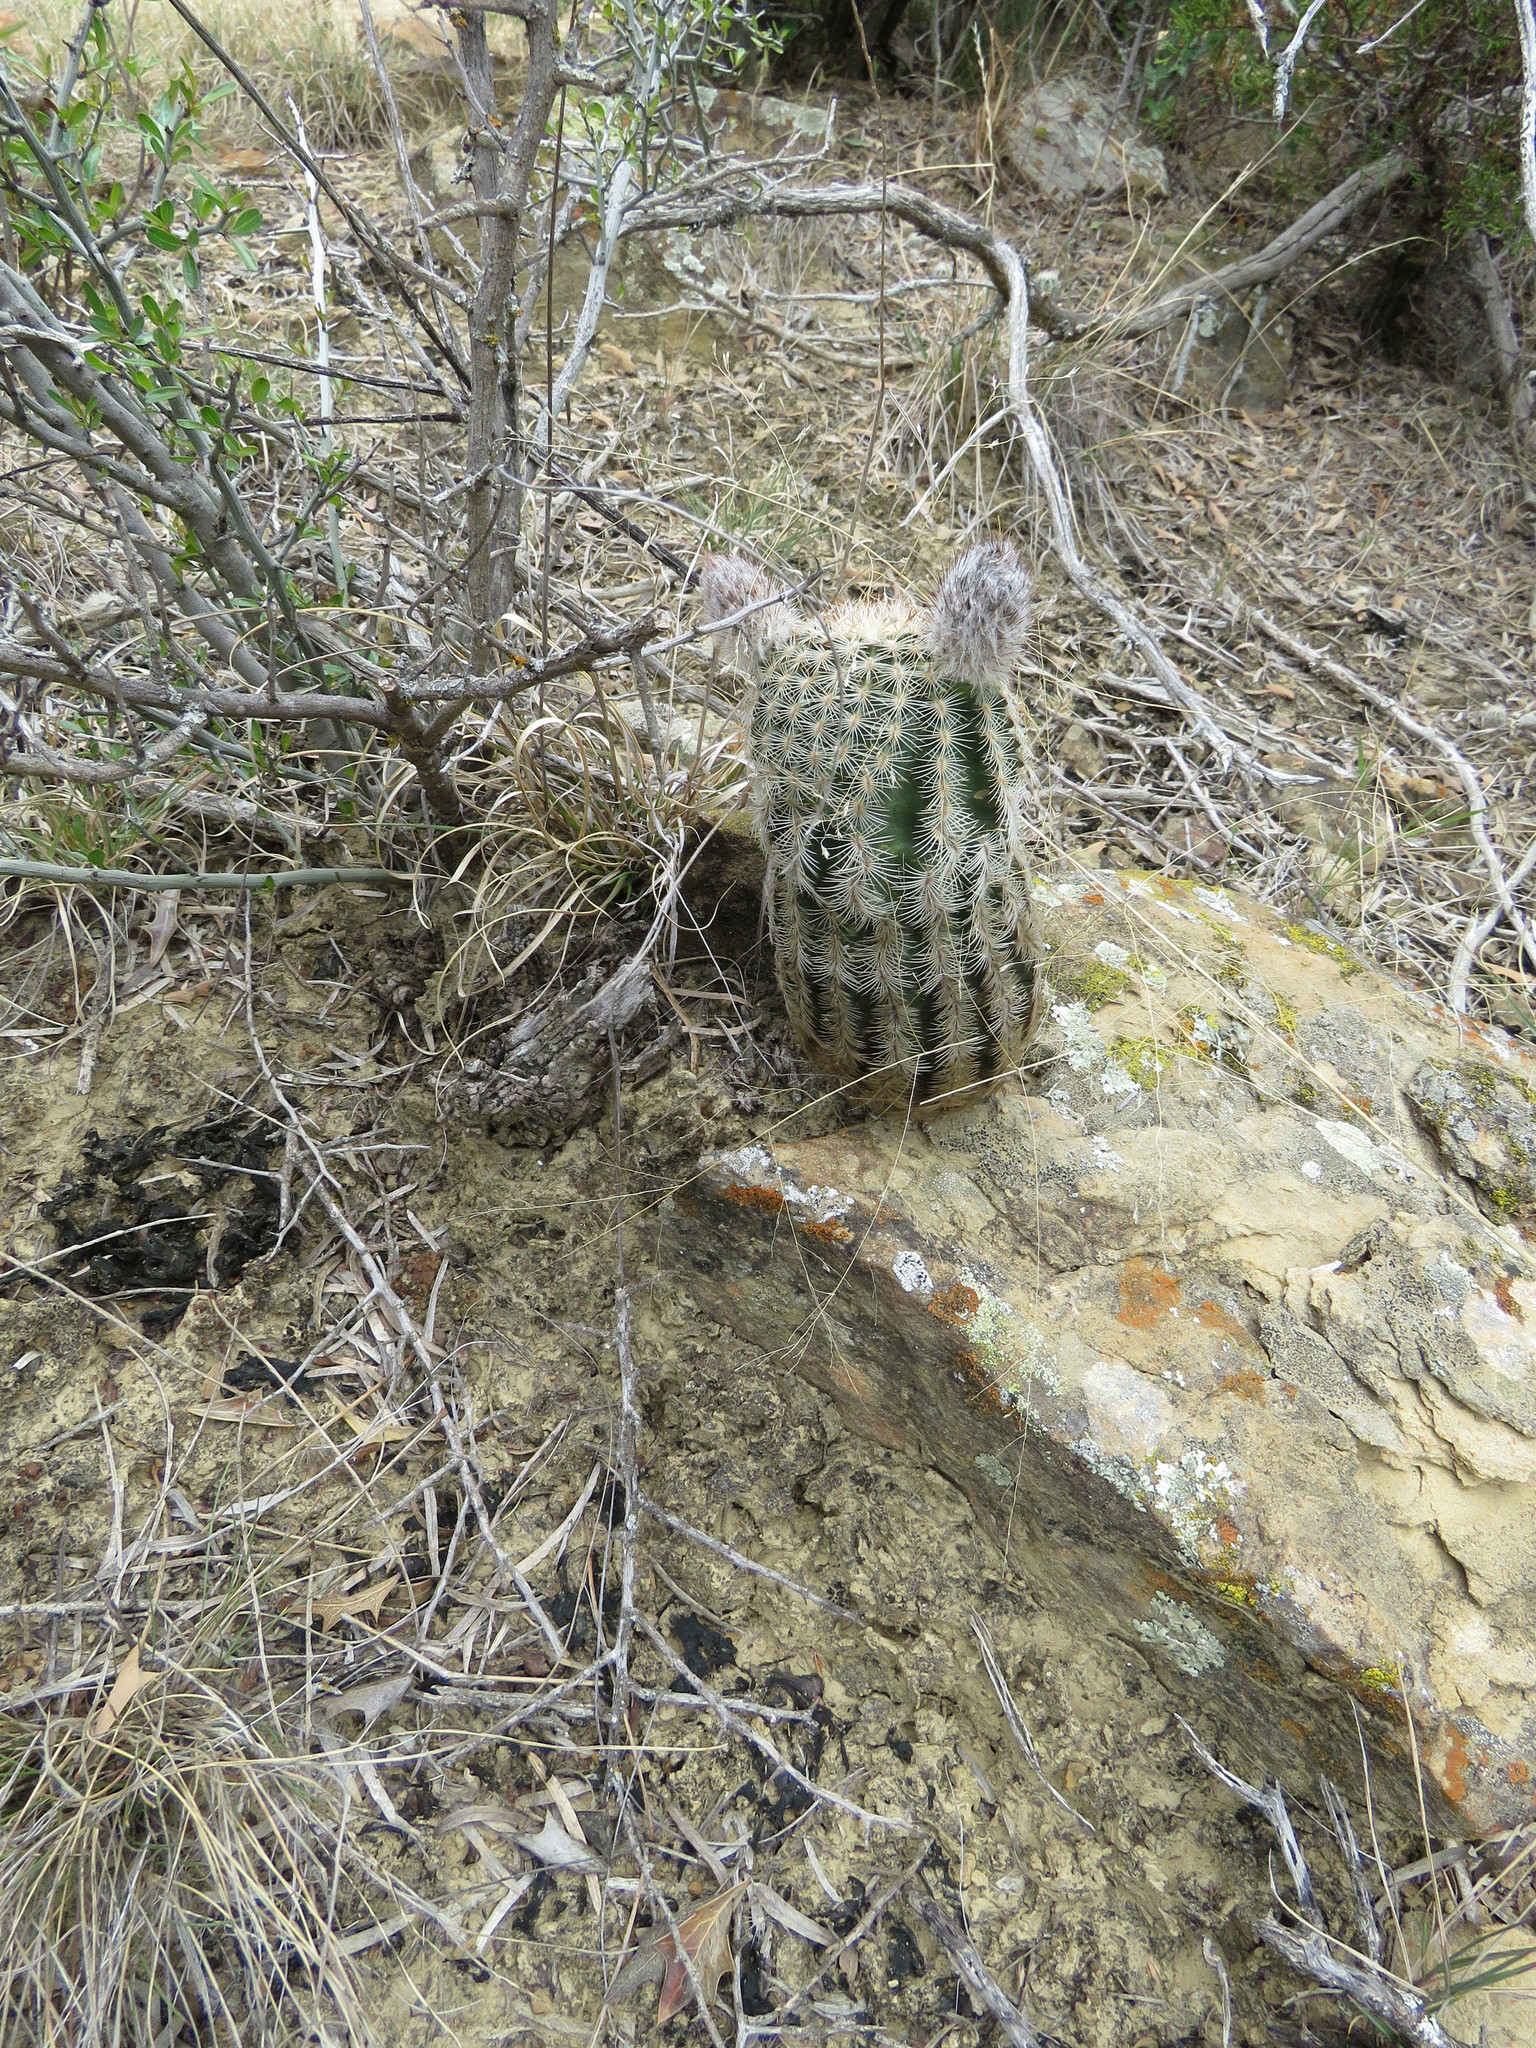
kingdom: Plantae
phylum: Tracheophyta
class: Magnoliopsida
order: Caryophyllales
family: Cactaceae
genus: Echinocereus
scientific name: Echinocereus reichenbachii
